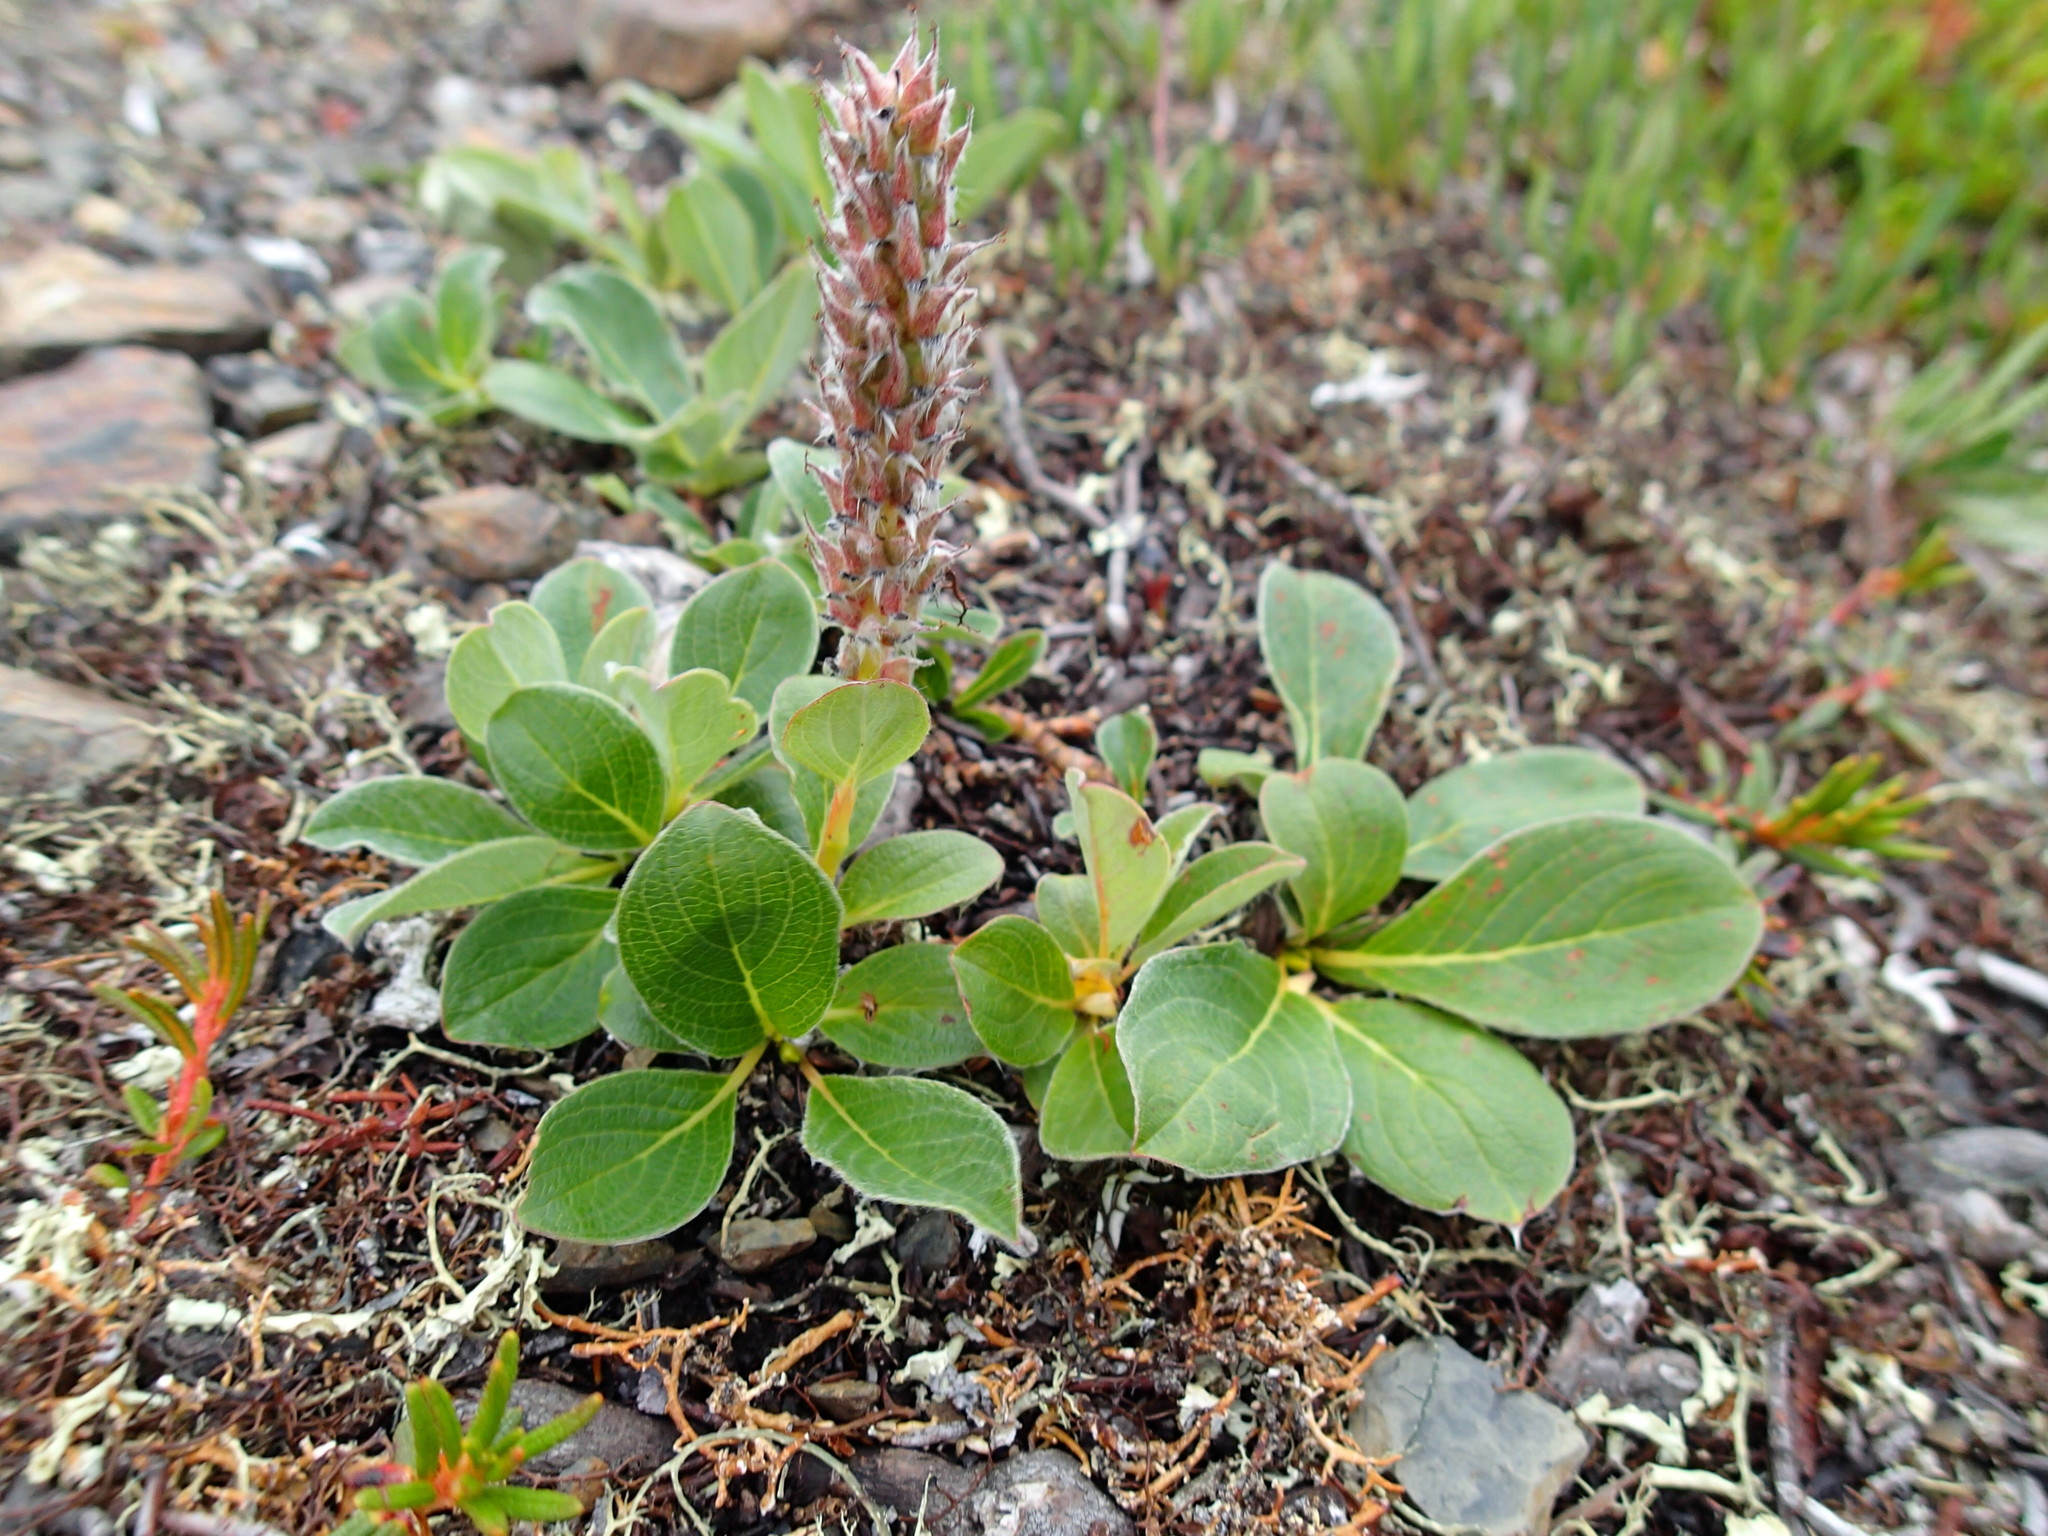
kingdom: Plantae
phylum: Tracheophyta
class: Magnoliopsida
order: Malpighiales
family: Salicaceae
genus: Salix
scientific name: Salix arctica
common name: Arctic willow
